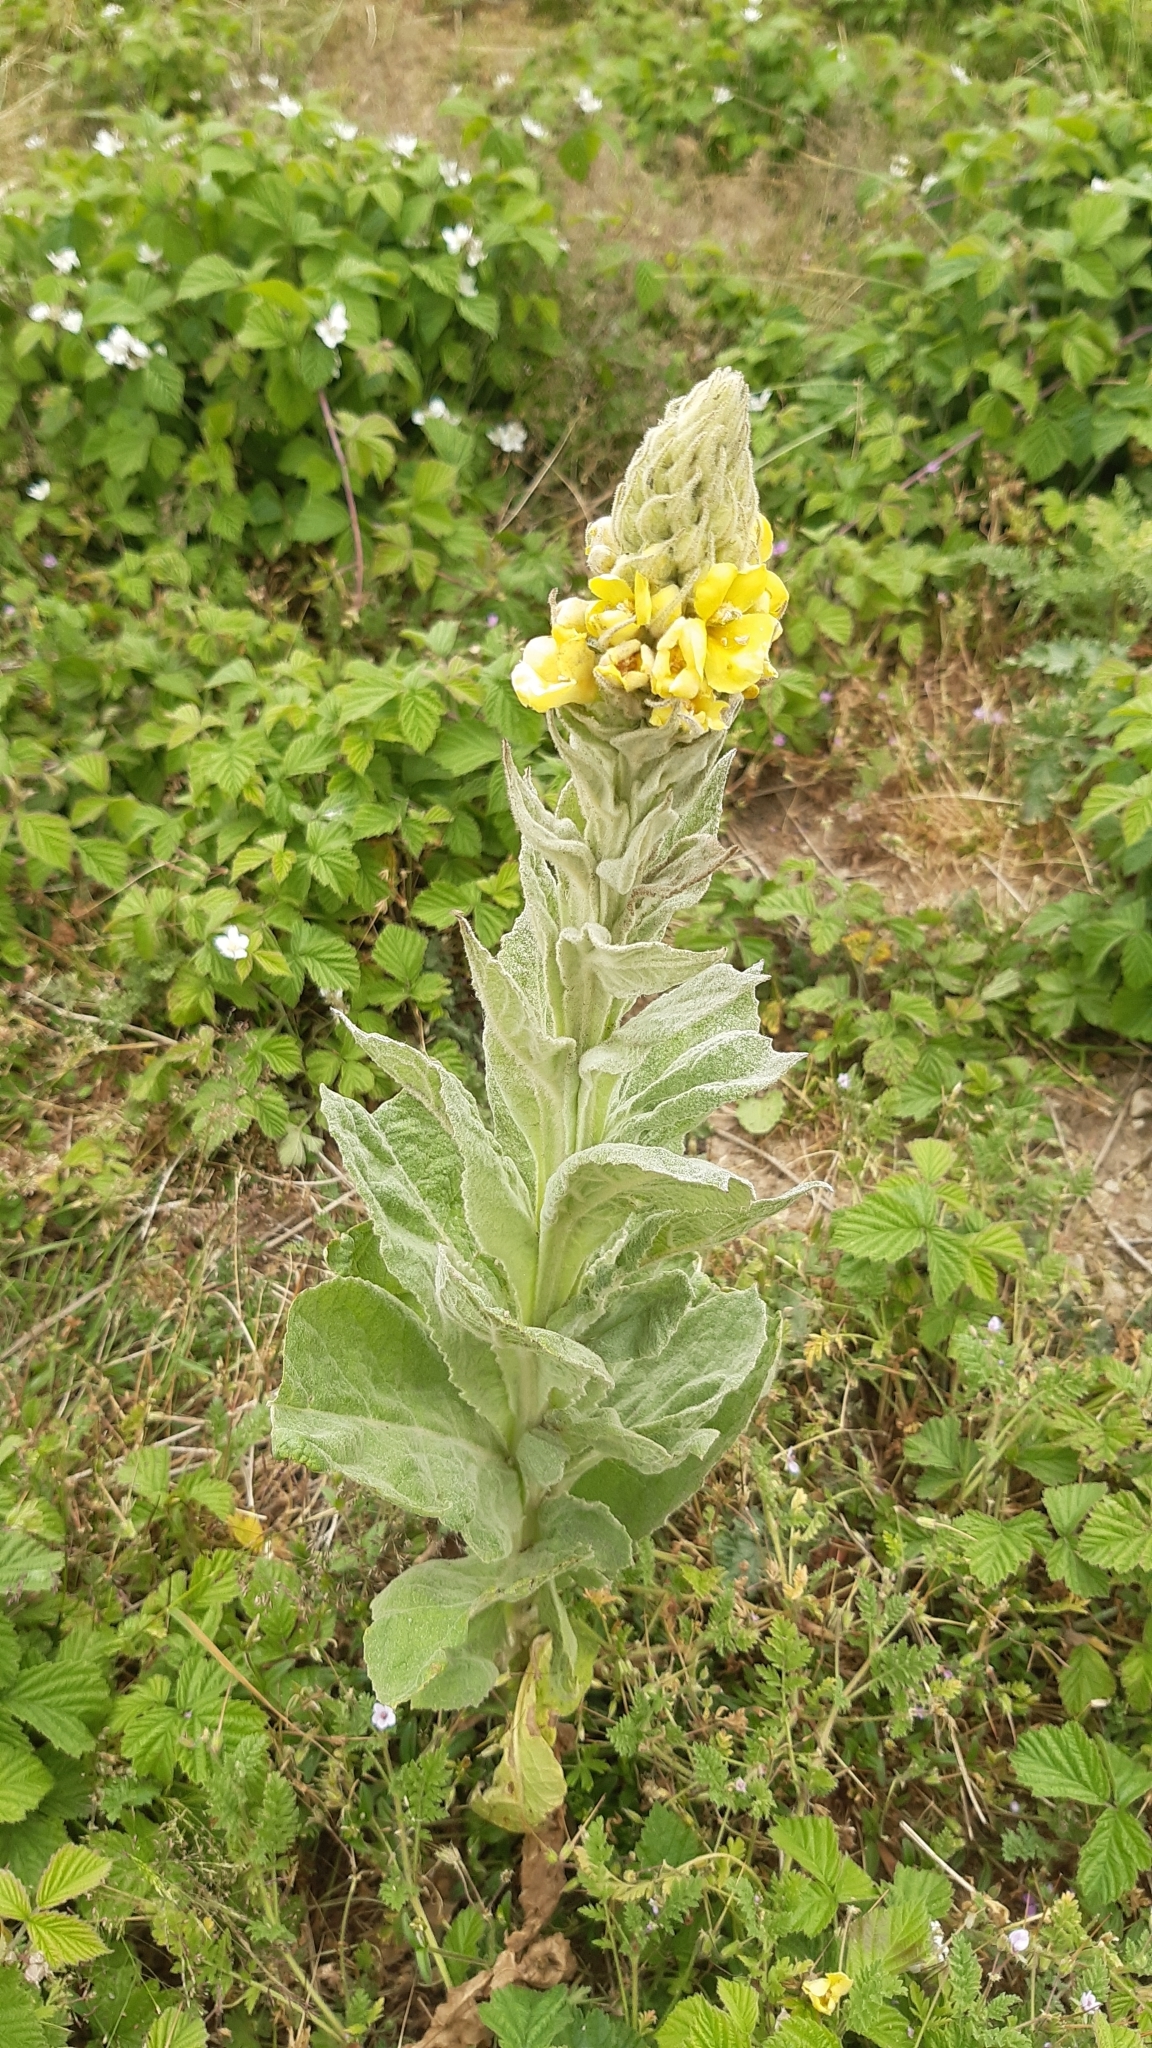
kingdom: Plantae
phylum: Tracheophyta
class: Magnoliopsida
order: Lamiales
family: Scrophulariaceae
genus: Verbascum
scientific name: Verbascum thapsus
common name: Common mullein
